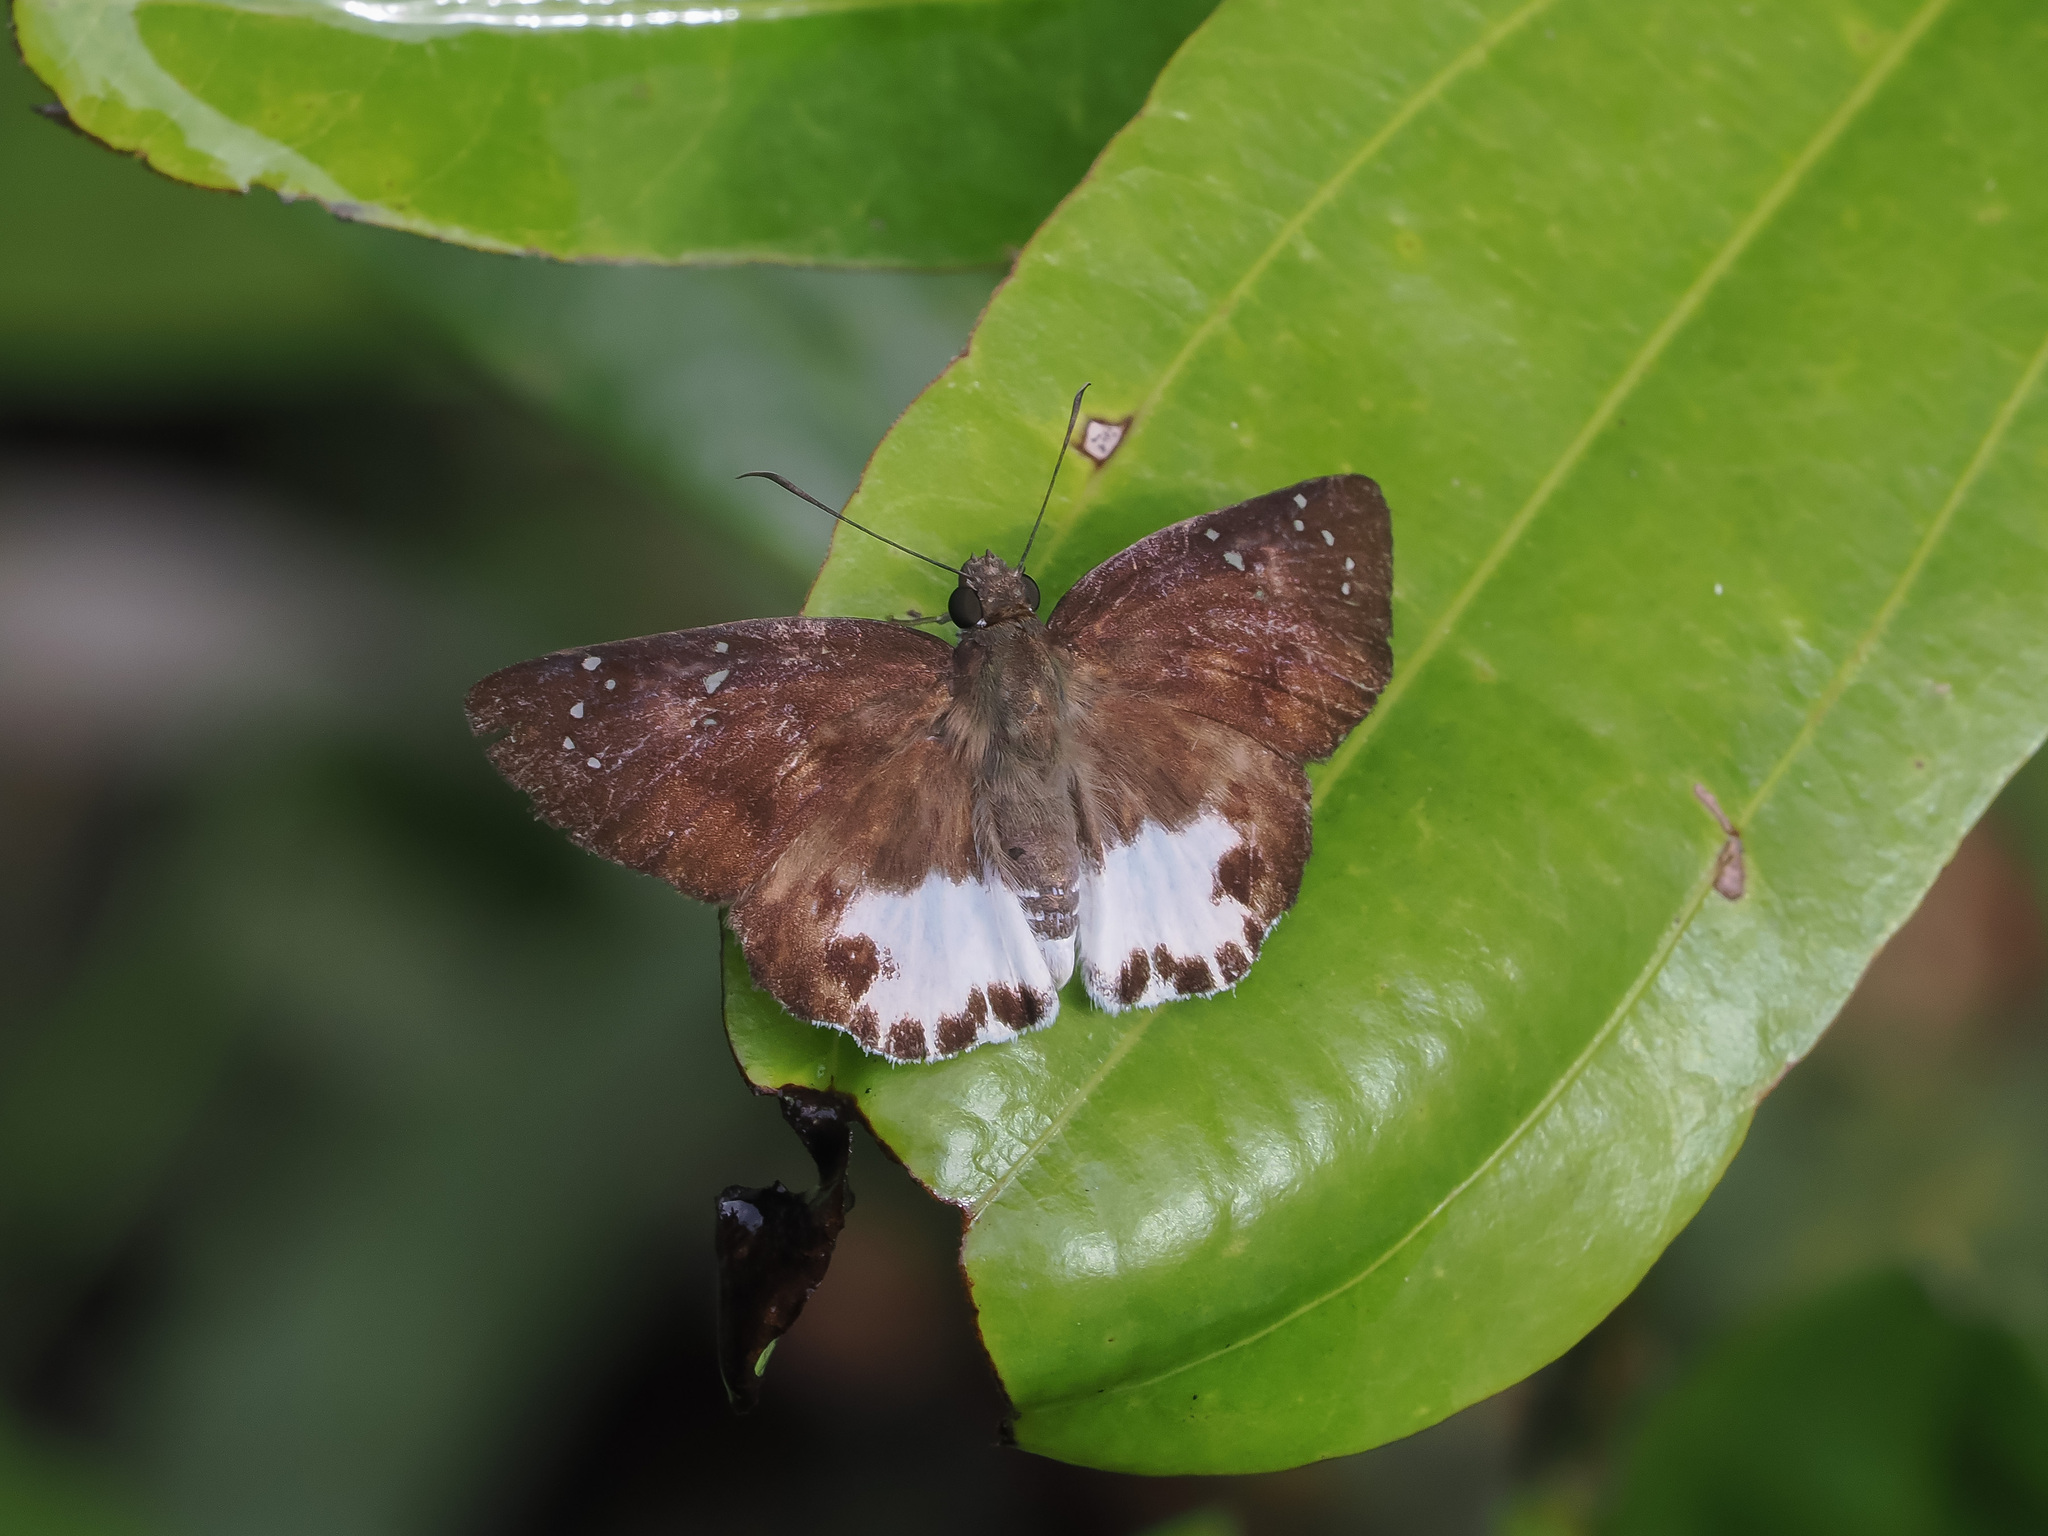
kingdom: Animalia
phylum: Arthropoda
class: Insecta
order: Lepidoptera
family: Hesperiidae
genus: Tagiades
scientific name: Tagiades litigiosa
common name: Water snow flat
